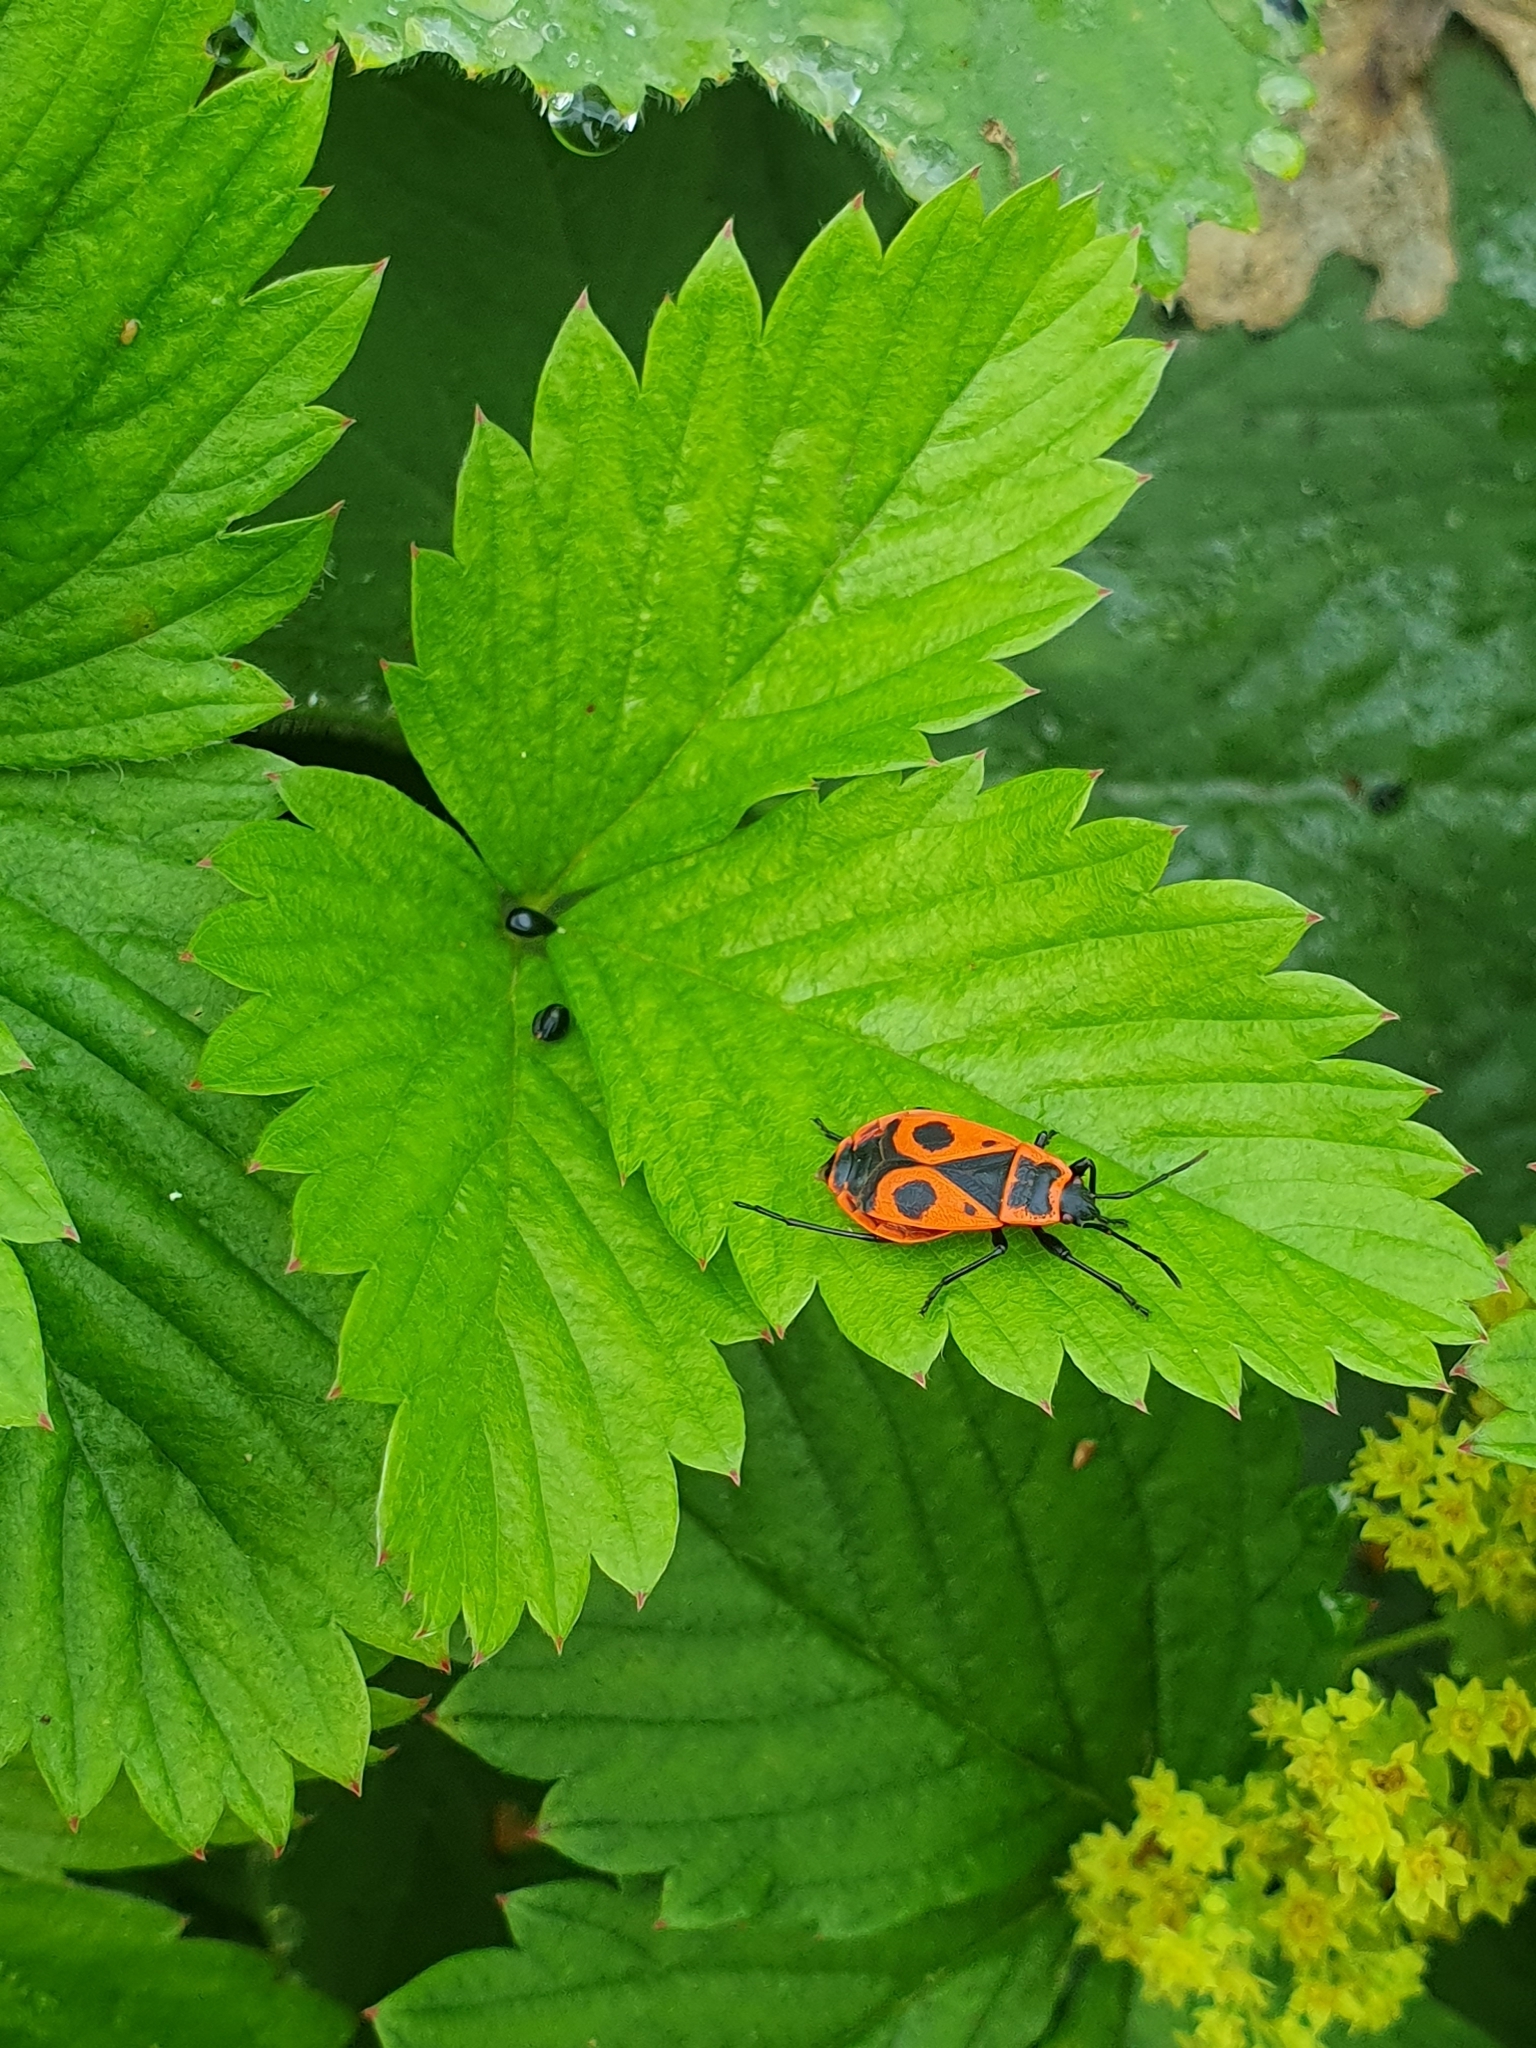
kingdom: Animalia
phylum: Arthropoda
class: Insecta
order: Hemiptera
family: Pyrrhocoridae
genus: Pyrrhocoris
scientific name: Pyrrhocoris apterus
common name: Firebug
